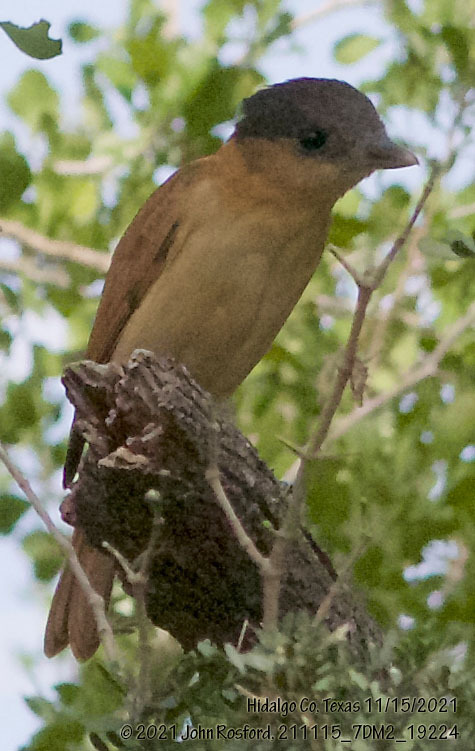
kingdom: Animalia
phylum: Chordata
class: Aves
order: Passeriformes
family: Cotingidae
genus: Pachyramphus
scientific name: Pachyramphus aglaiae
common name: Rose-throated becard
